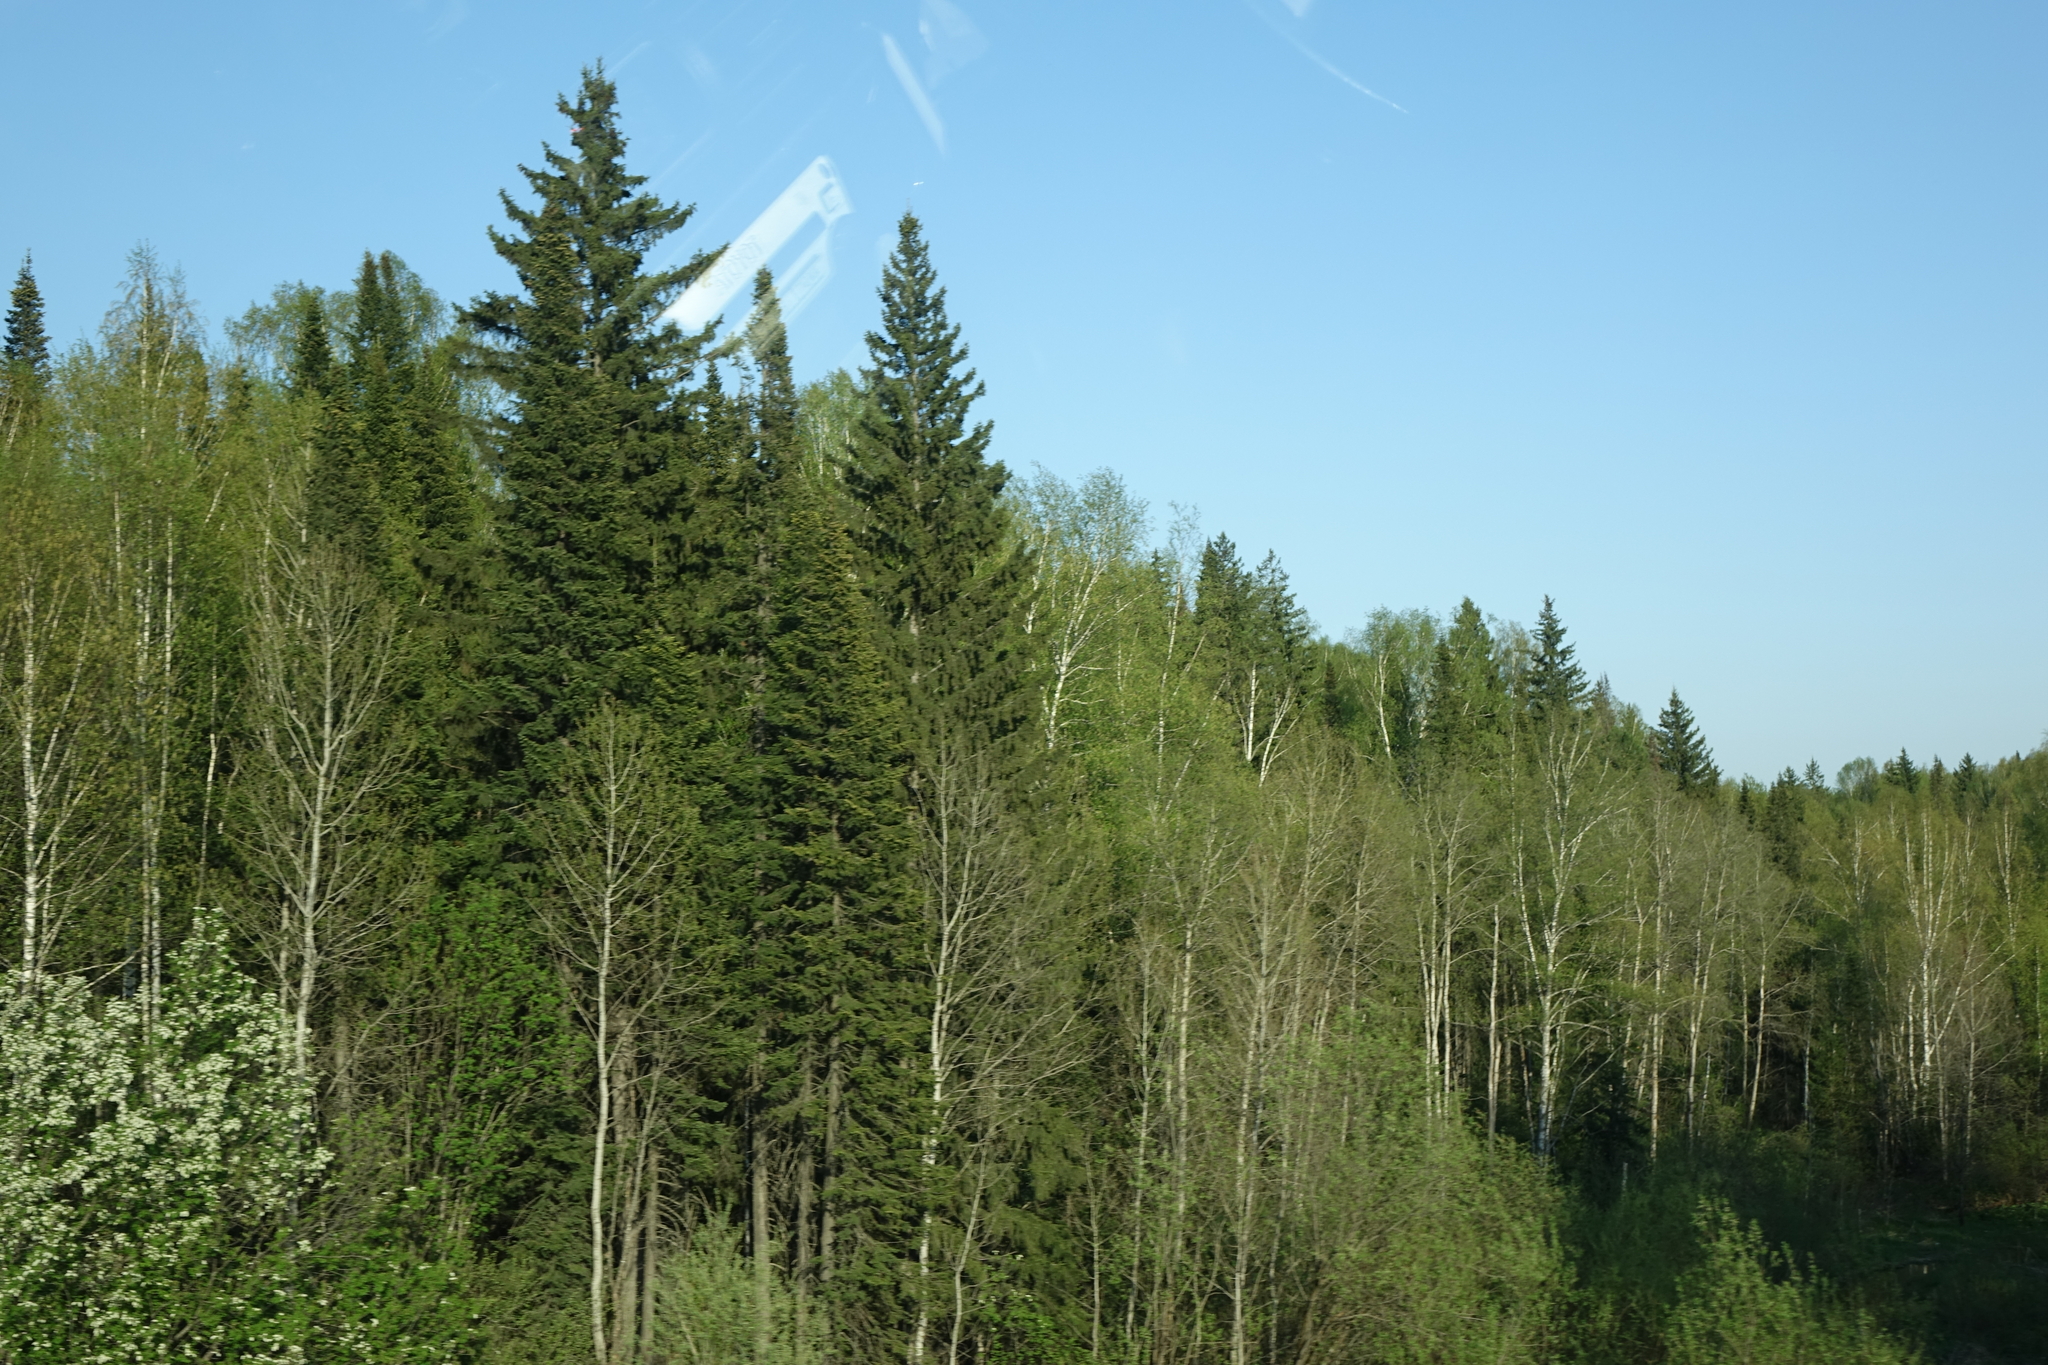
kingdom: Plantae
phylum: Tracheophyta
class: Pinopsida
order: Pinales
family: Pinaceae
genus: Abies
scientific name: Abies sibirica
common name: Siberian fir
